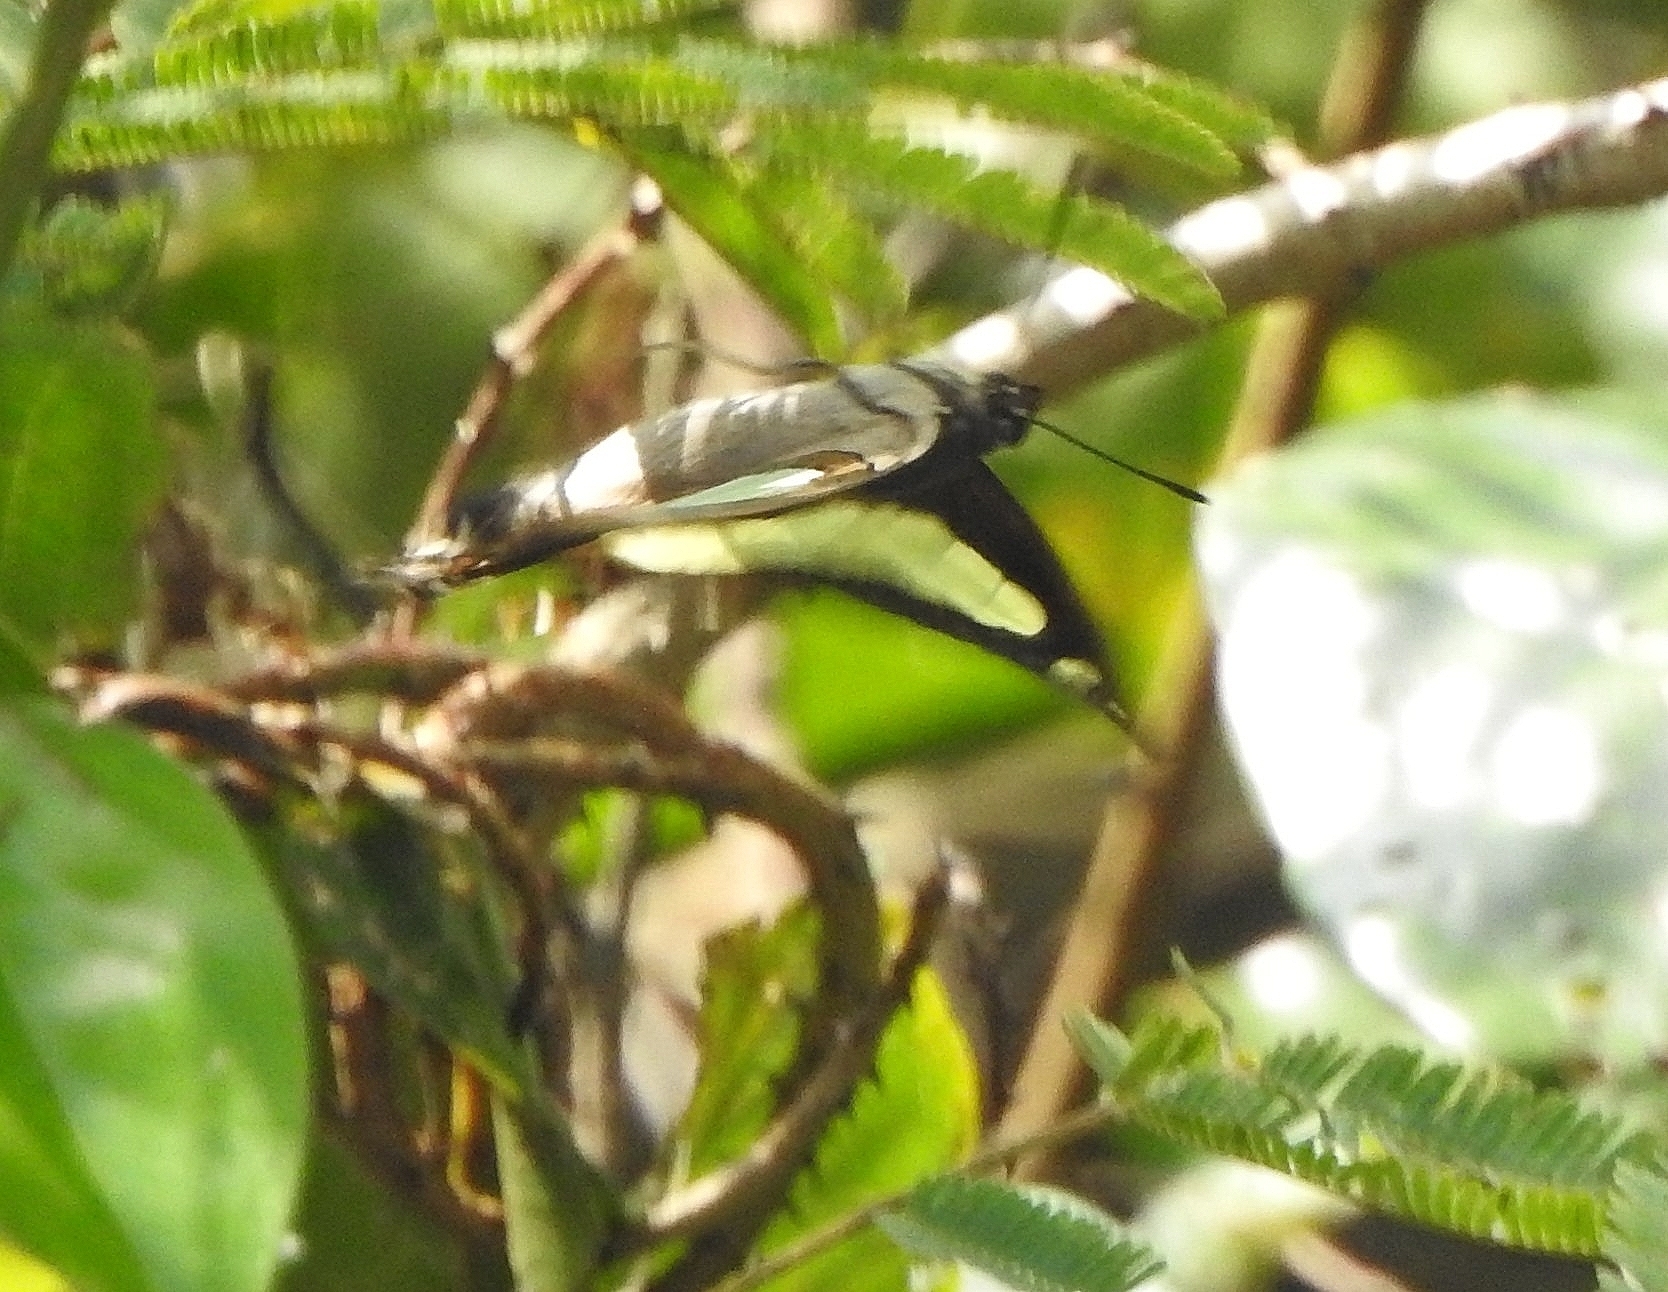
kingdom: Animalia
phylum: Arthropoda
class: Insecta
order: Lepidoptera
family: Nymphalidae
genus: Polyura
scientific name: Polyura
